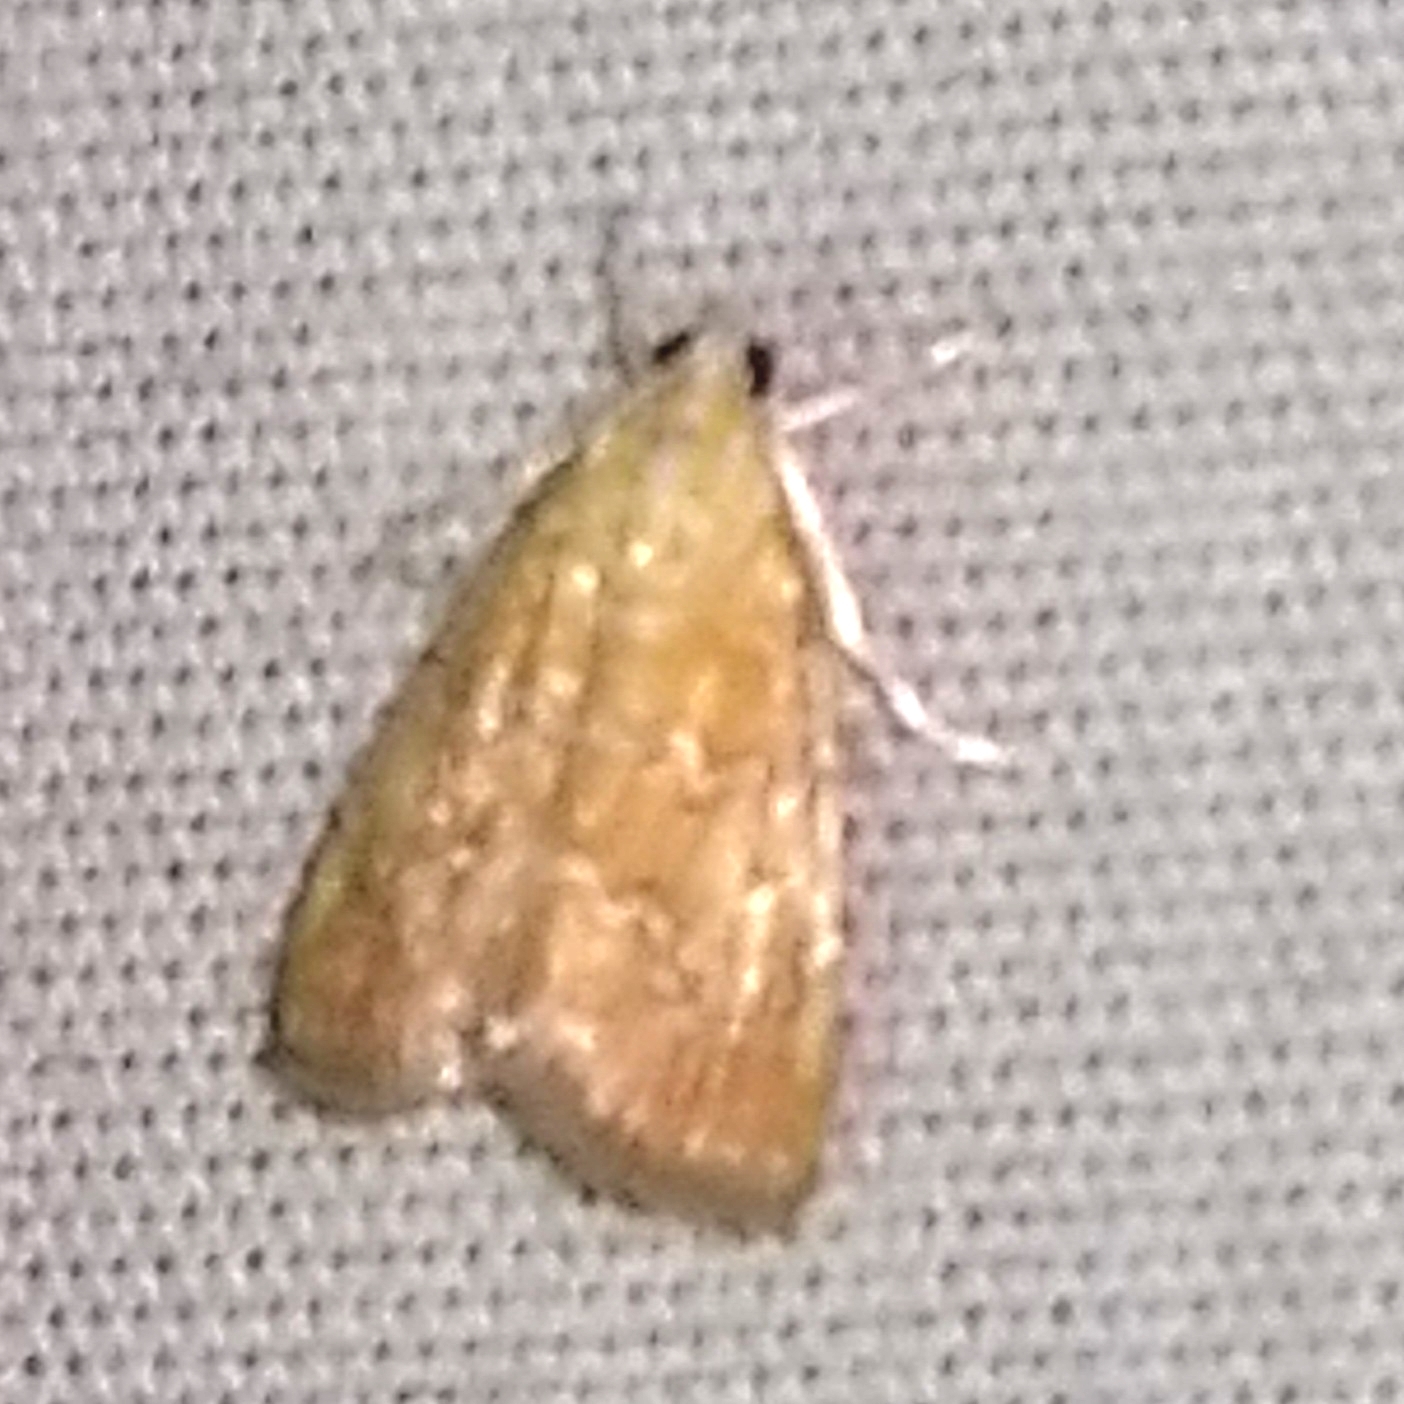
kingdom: Animalia
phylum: Arthropoda
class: Insecta
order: Lepidoptera
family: Crambidae
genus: Glaphyria
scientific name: Glaphyria sesquistrialis
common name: White-roped glaphyria
